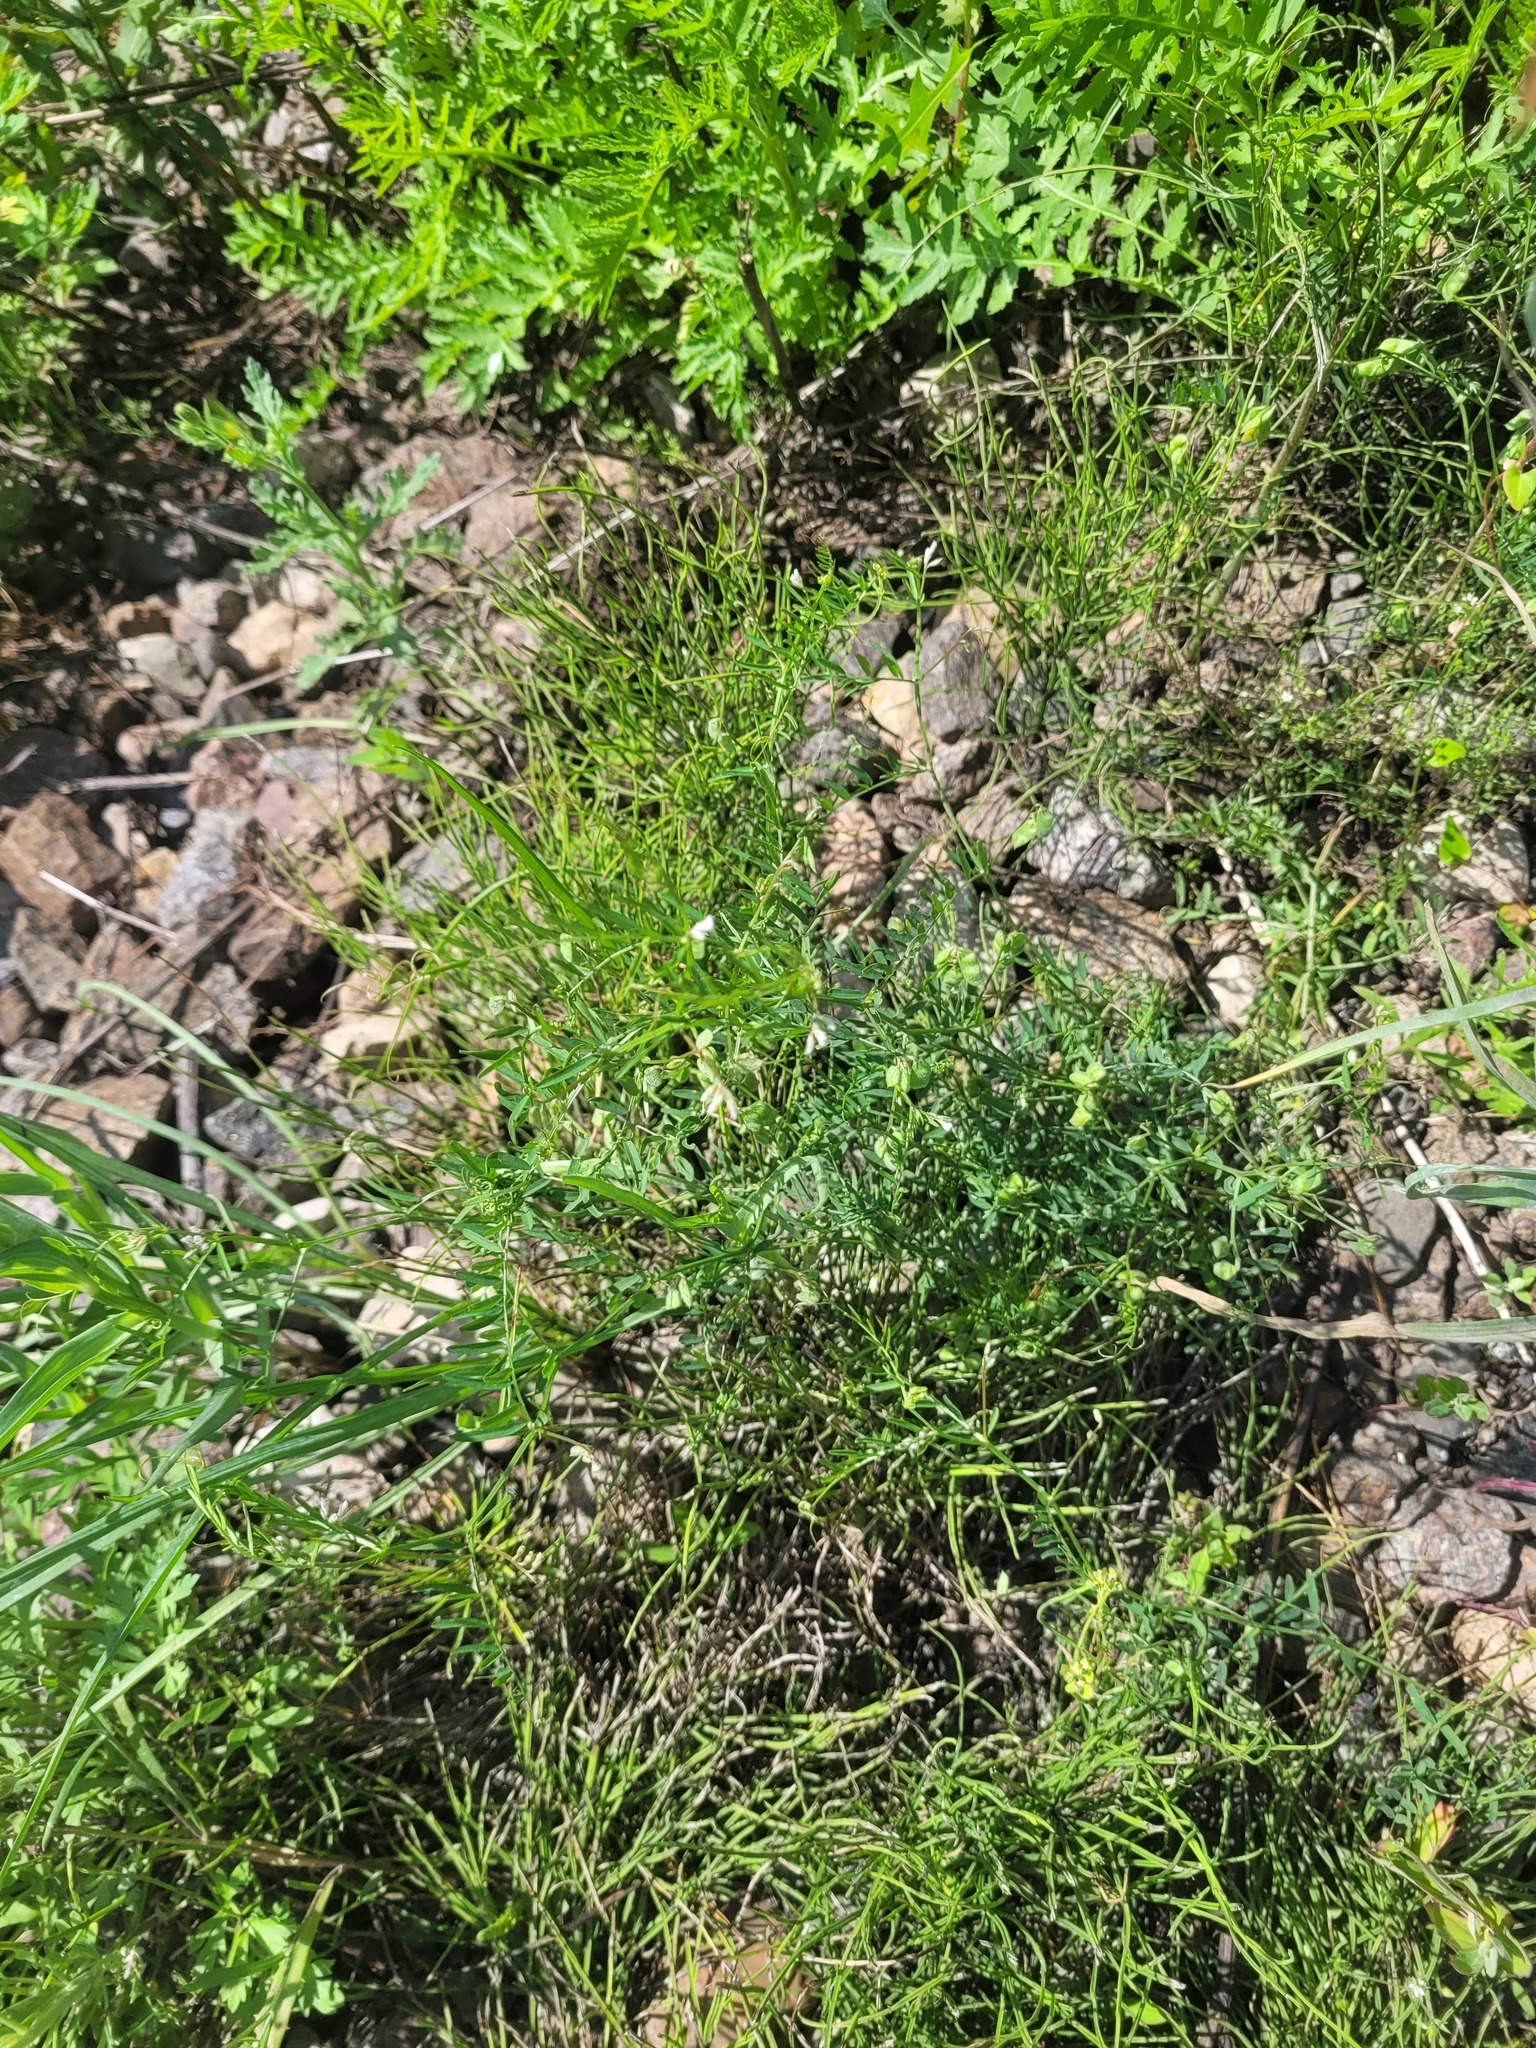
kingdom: Plantae
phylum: Tracheophyta
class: Magnoliopsida
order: Fabales
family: Fabaceae
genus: Vicia
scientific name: Vicia hirsuta
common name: Tiny vetch
